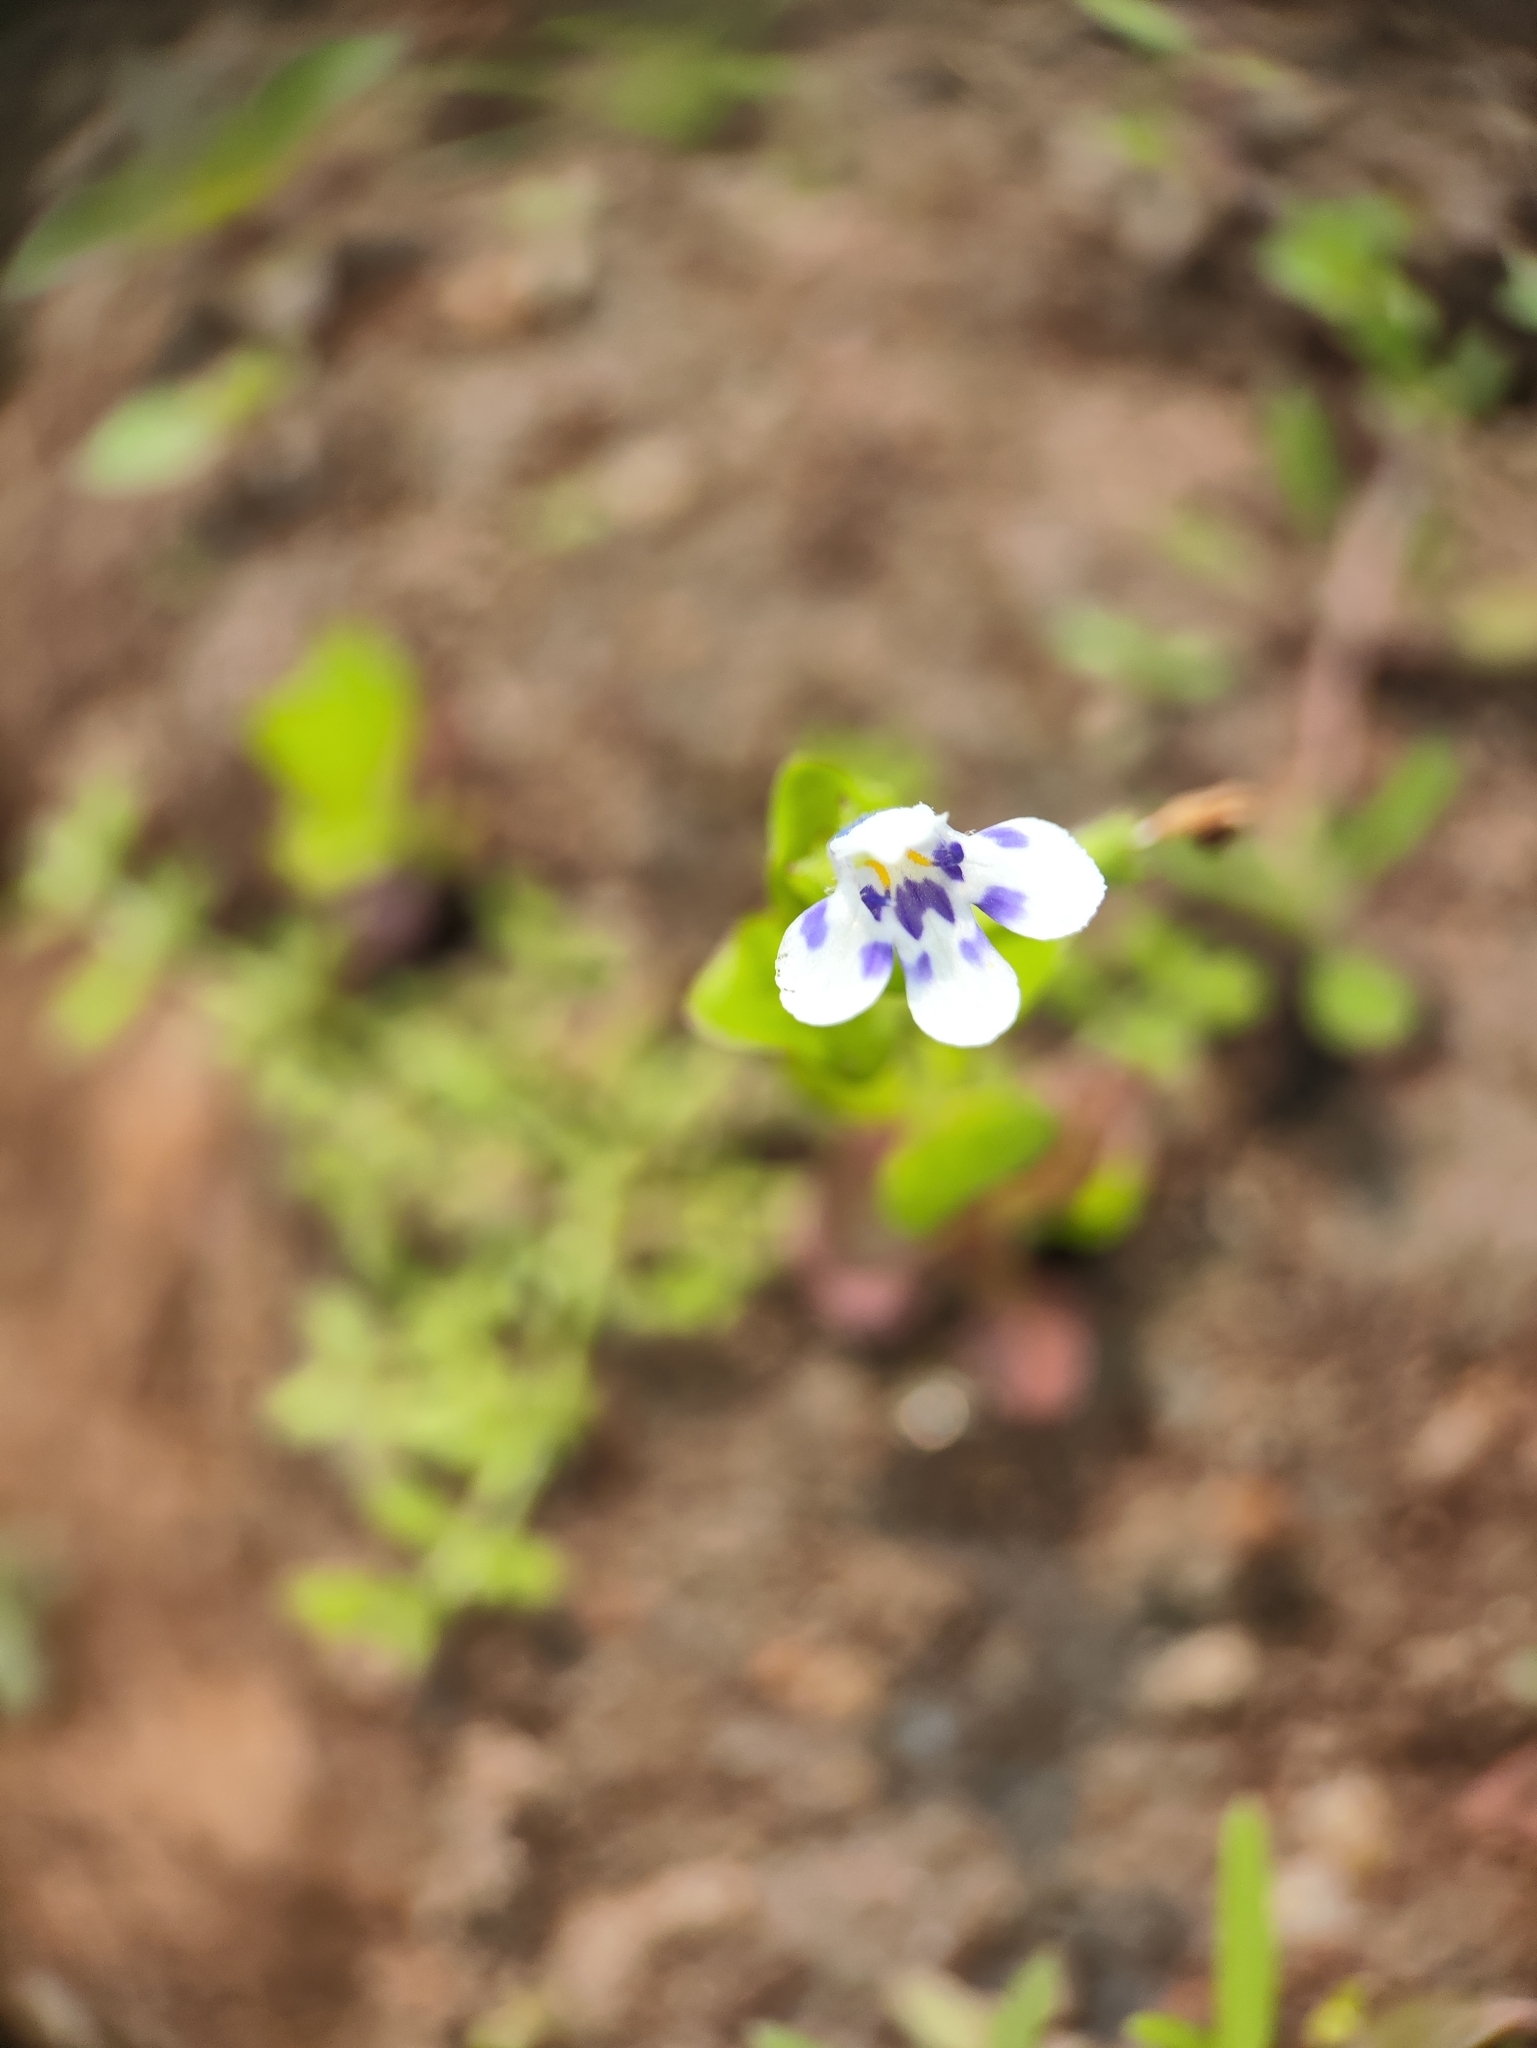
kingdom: Plantae
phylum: Tracheophyta
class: Magnoliopsida
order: Lamiales
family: Linderniaceae
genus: Lindernia
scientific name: Lindernia rotundifolia
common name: Baby’s tears
